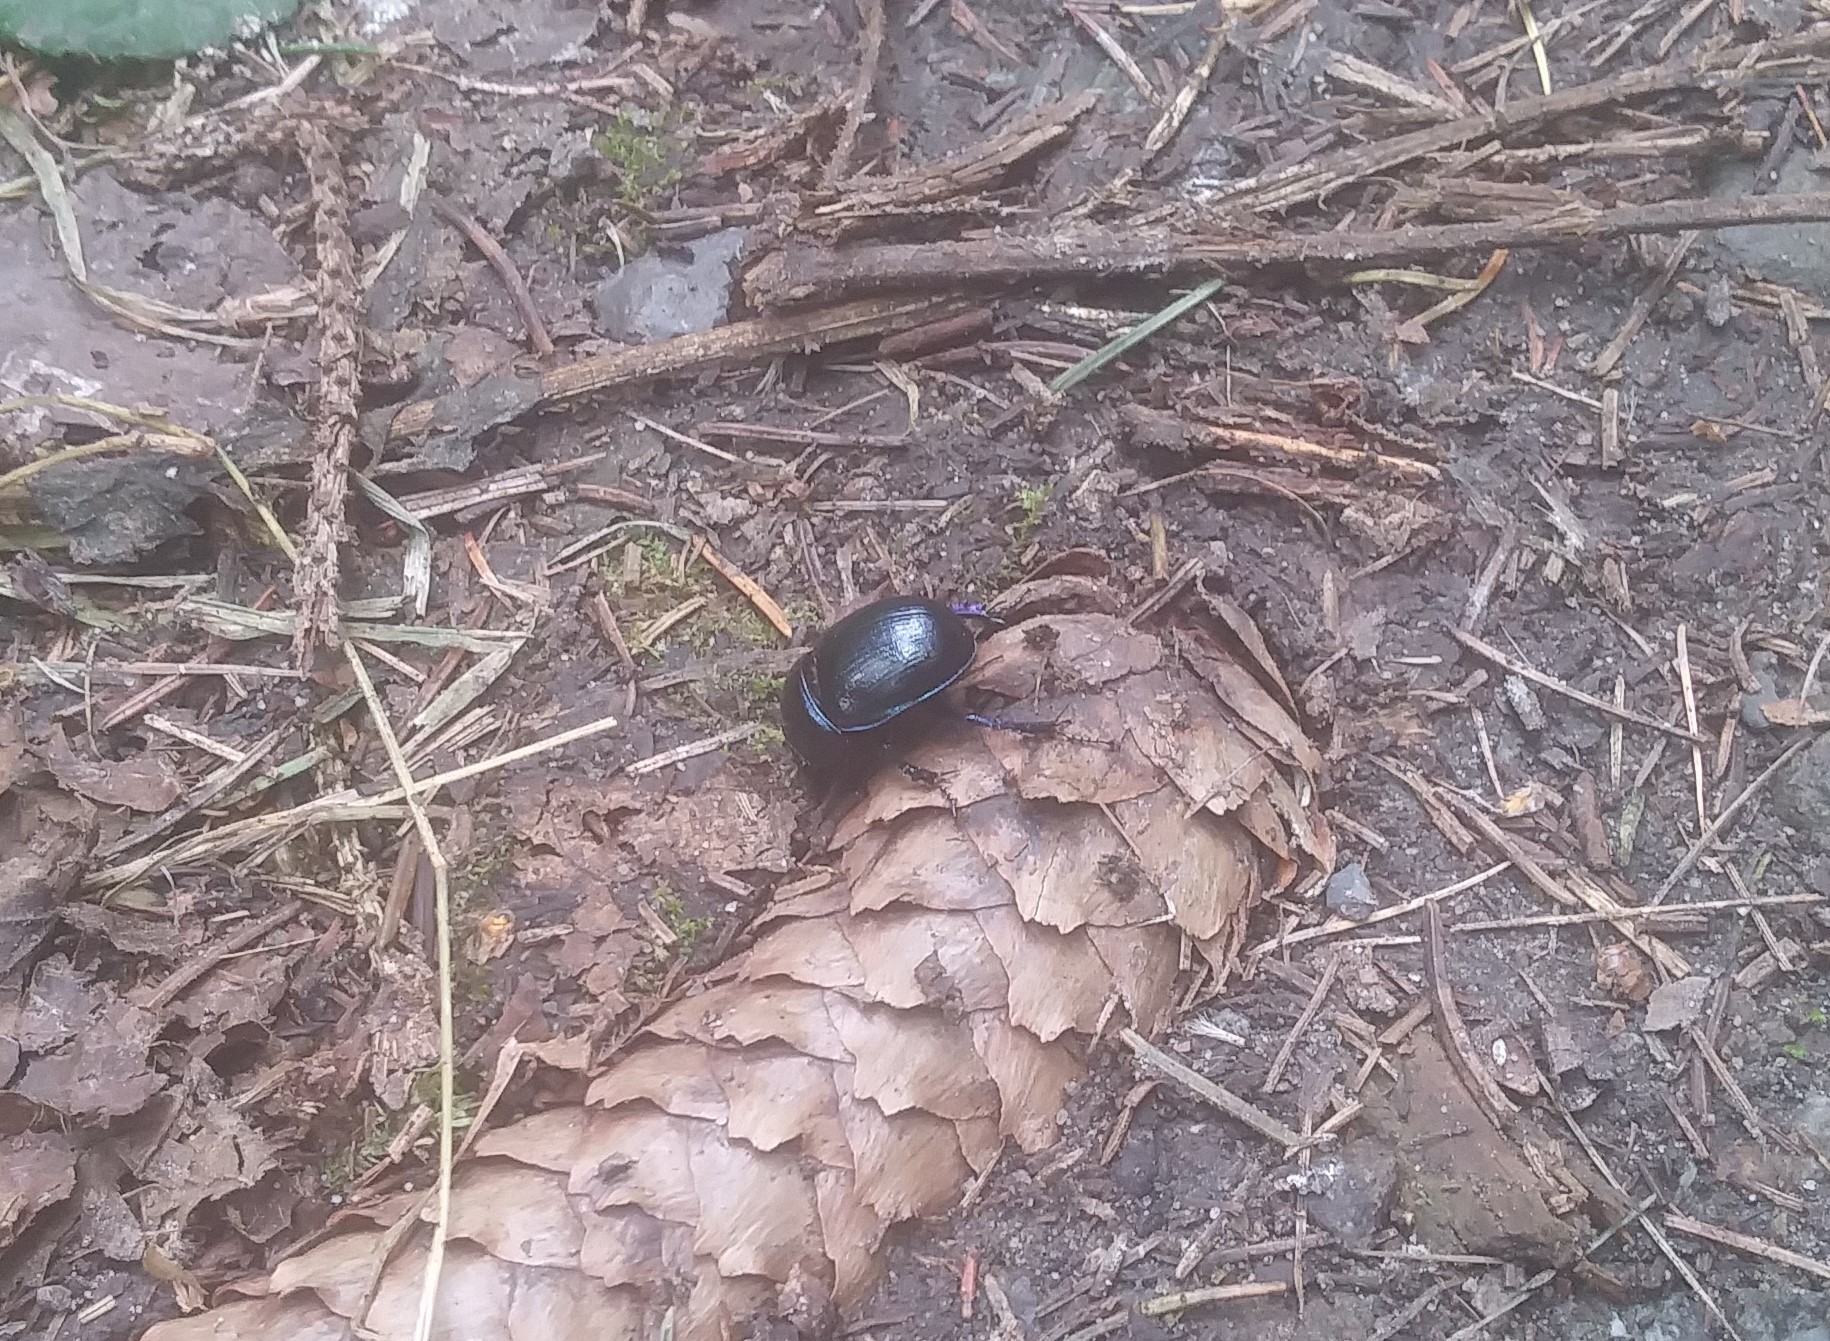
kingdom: Animalia
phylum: Arthropoda
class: Insecta
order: Coleoptera
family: Geotrupidae
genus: Anoplotrupes
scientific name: Anoplotrupes stercorosus
